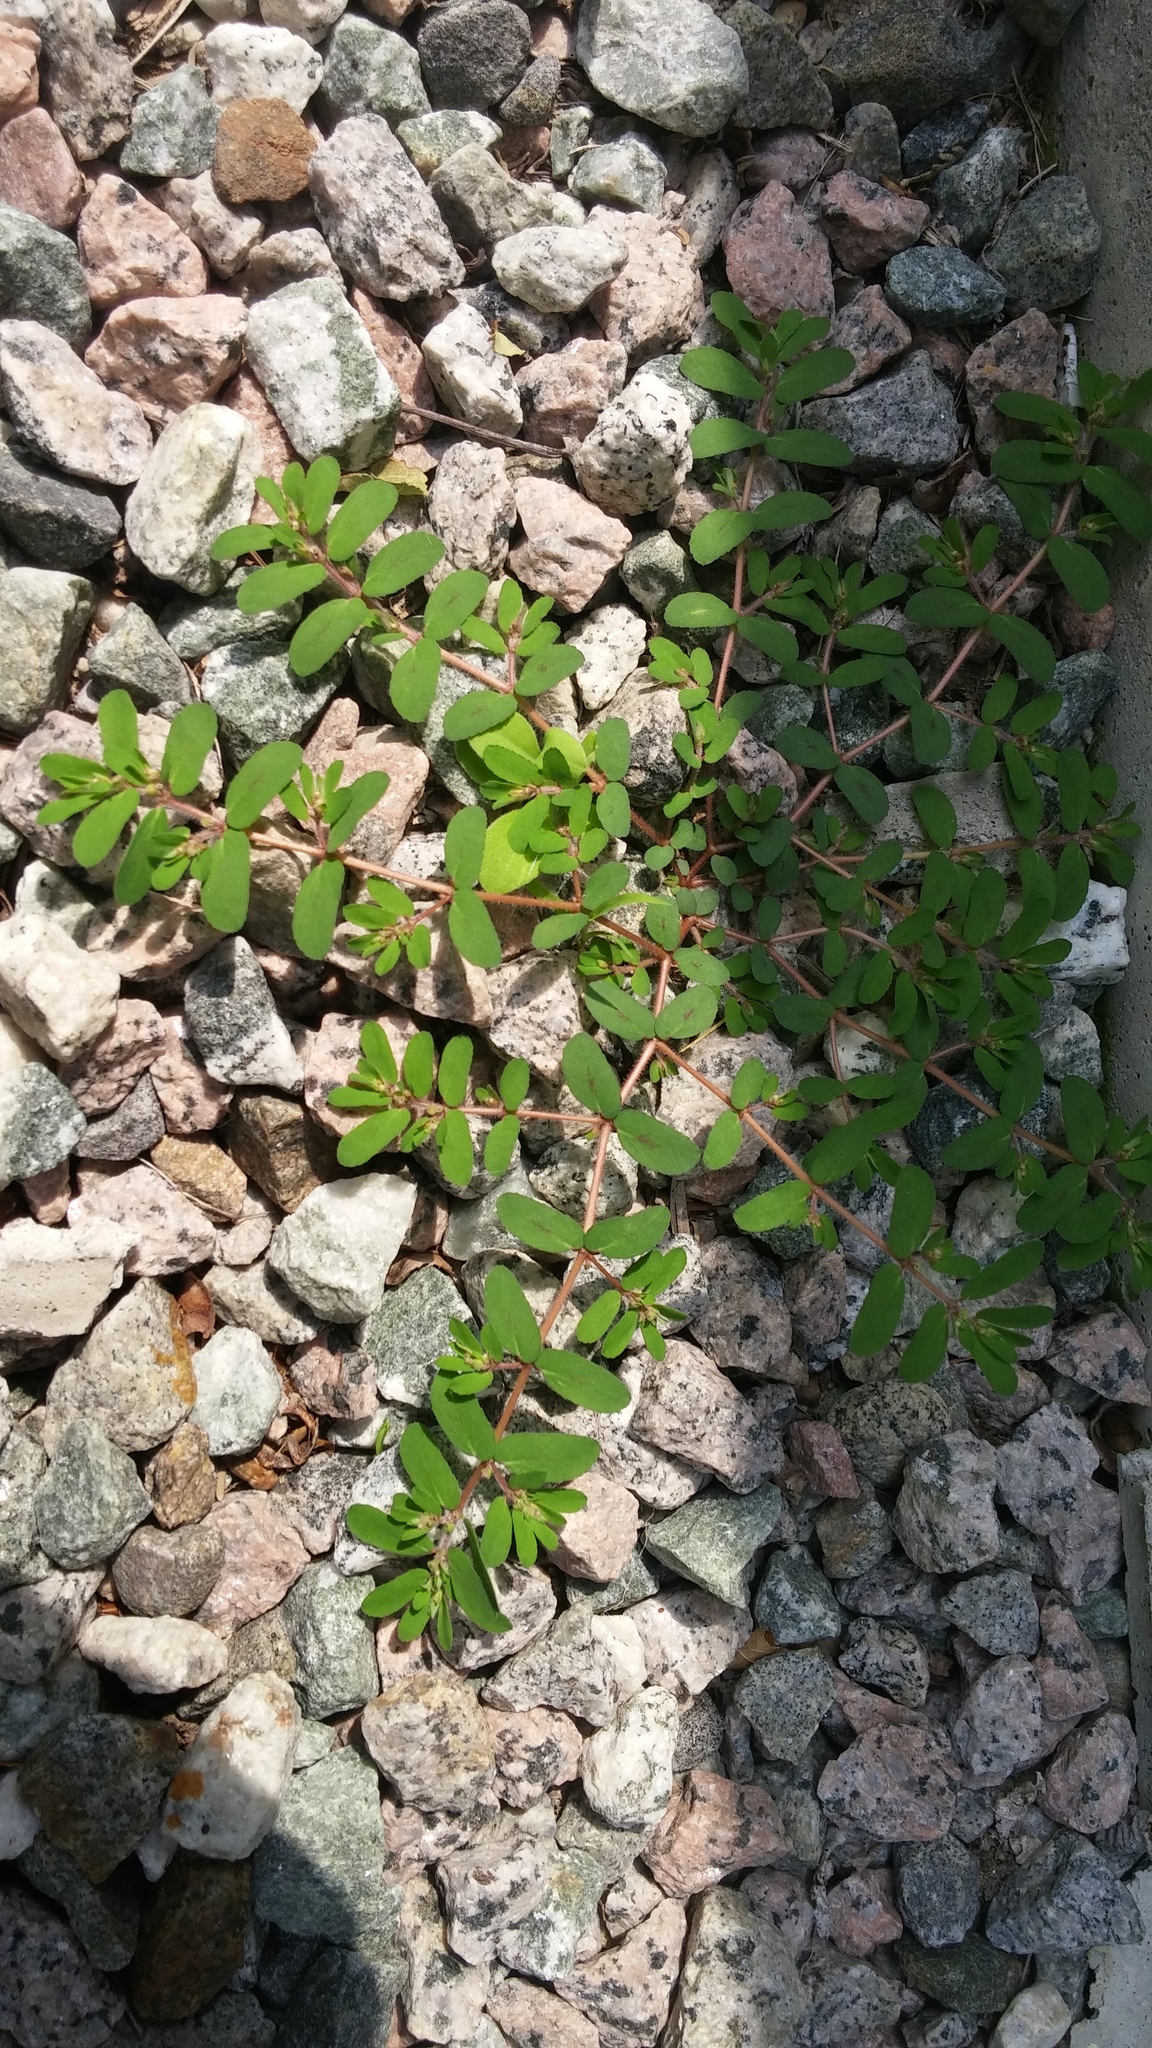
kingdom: Plantae
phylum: Tracheophyta
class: Magnoliopsida
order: Malpighiales
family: Euphorbiaceae
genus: Euphorbia
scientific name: Euphorbia maculata
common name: Spotted spurge
